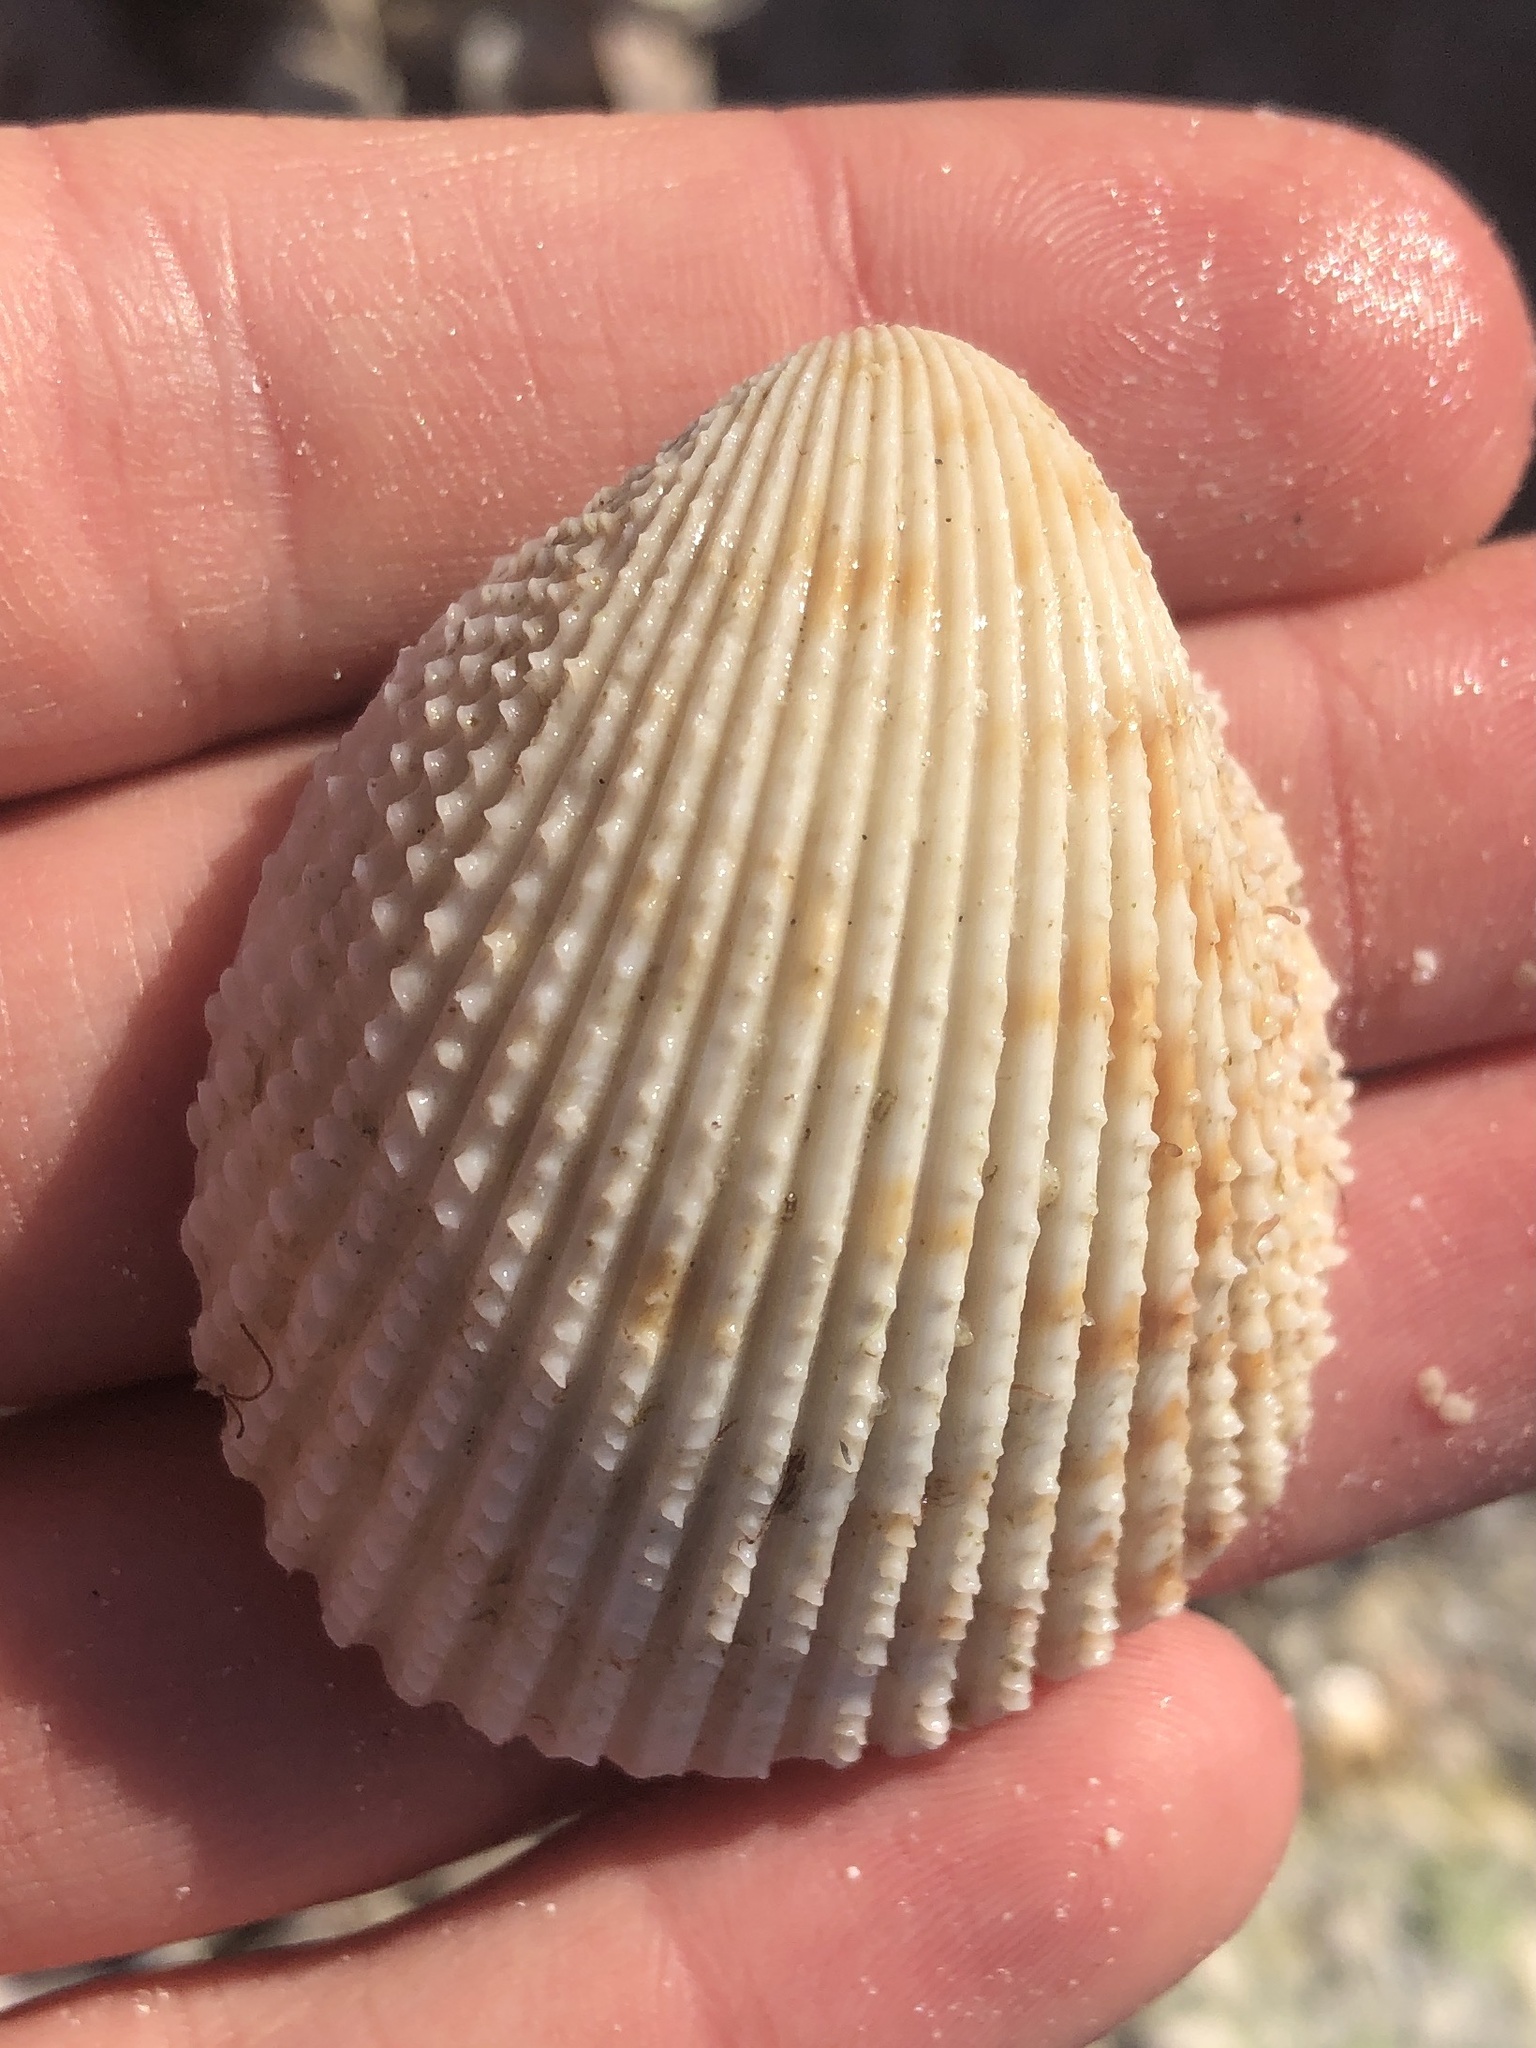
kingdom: Animalia
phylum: Mollusca
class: Bivalvia
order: Cardiida
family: Cardiidae
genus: Trachycardium
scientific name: Trachycardium egmontianum
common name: Florida pricklycockle
